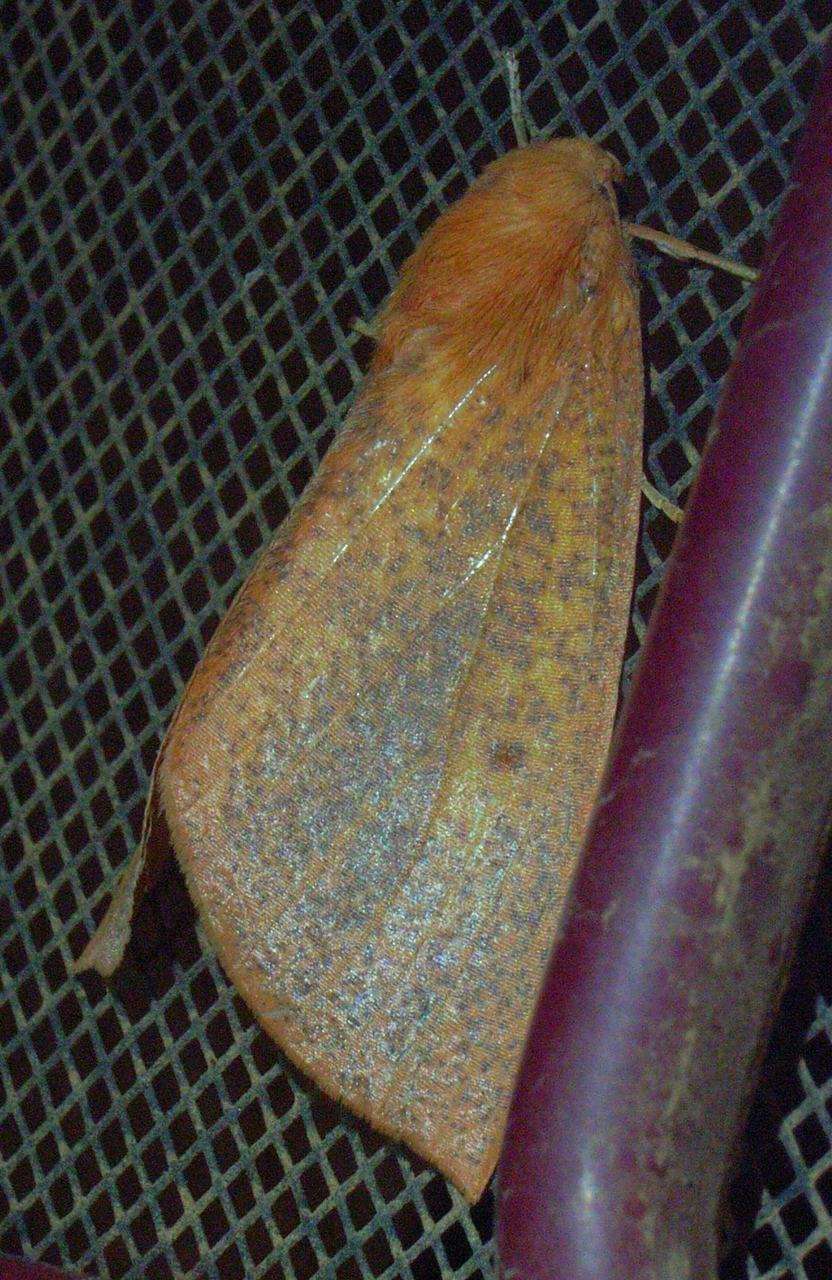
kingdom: Animalia
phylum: Arthropoda
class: Insecta
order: Lepidoptera
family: Geometridae
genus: Plesanemma
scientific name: Plesanemma fucata
